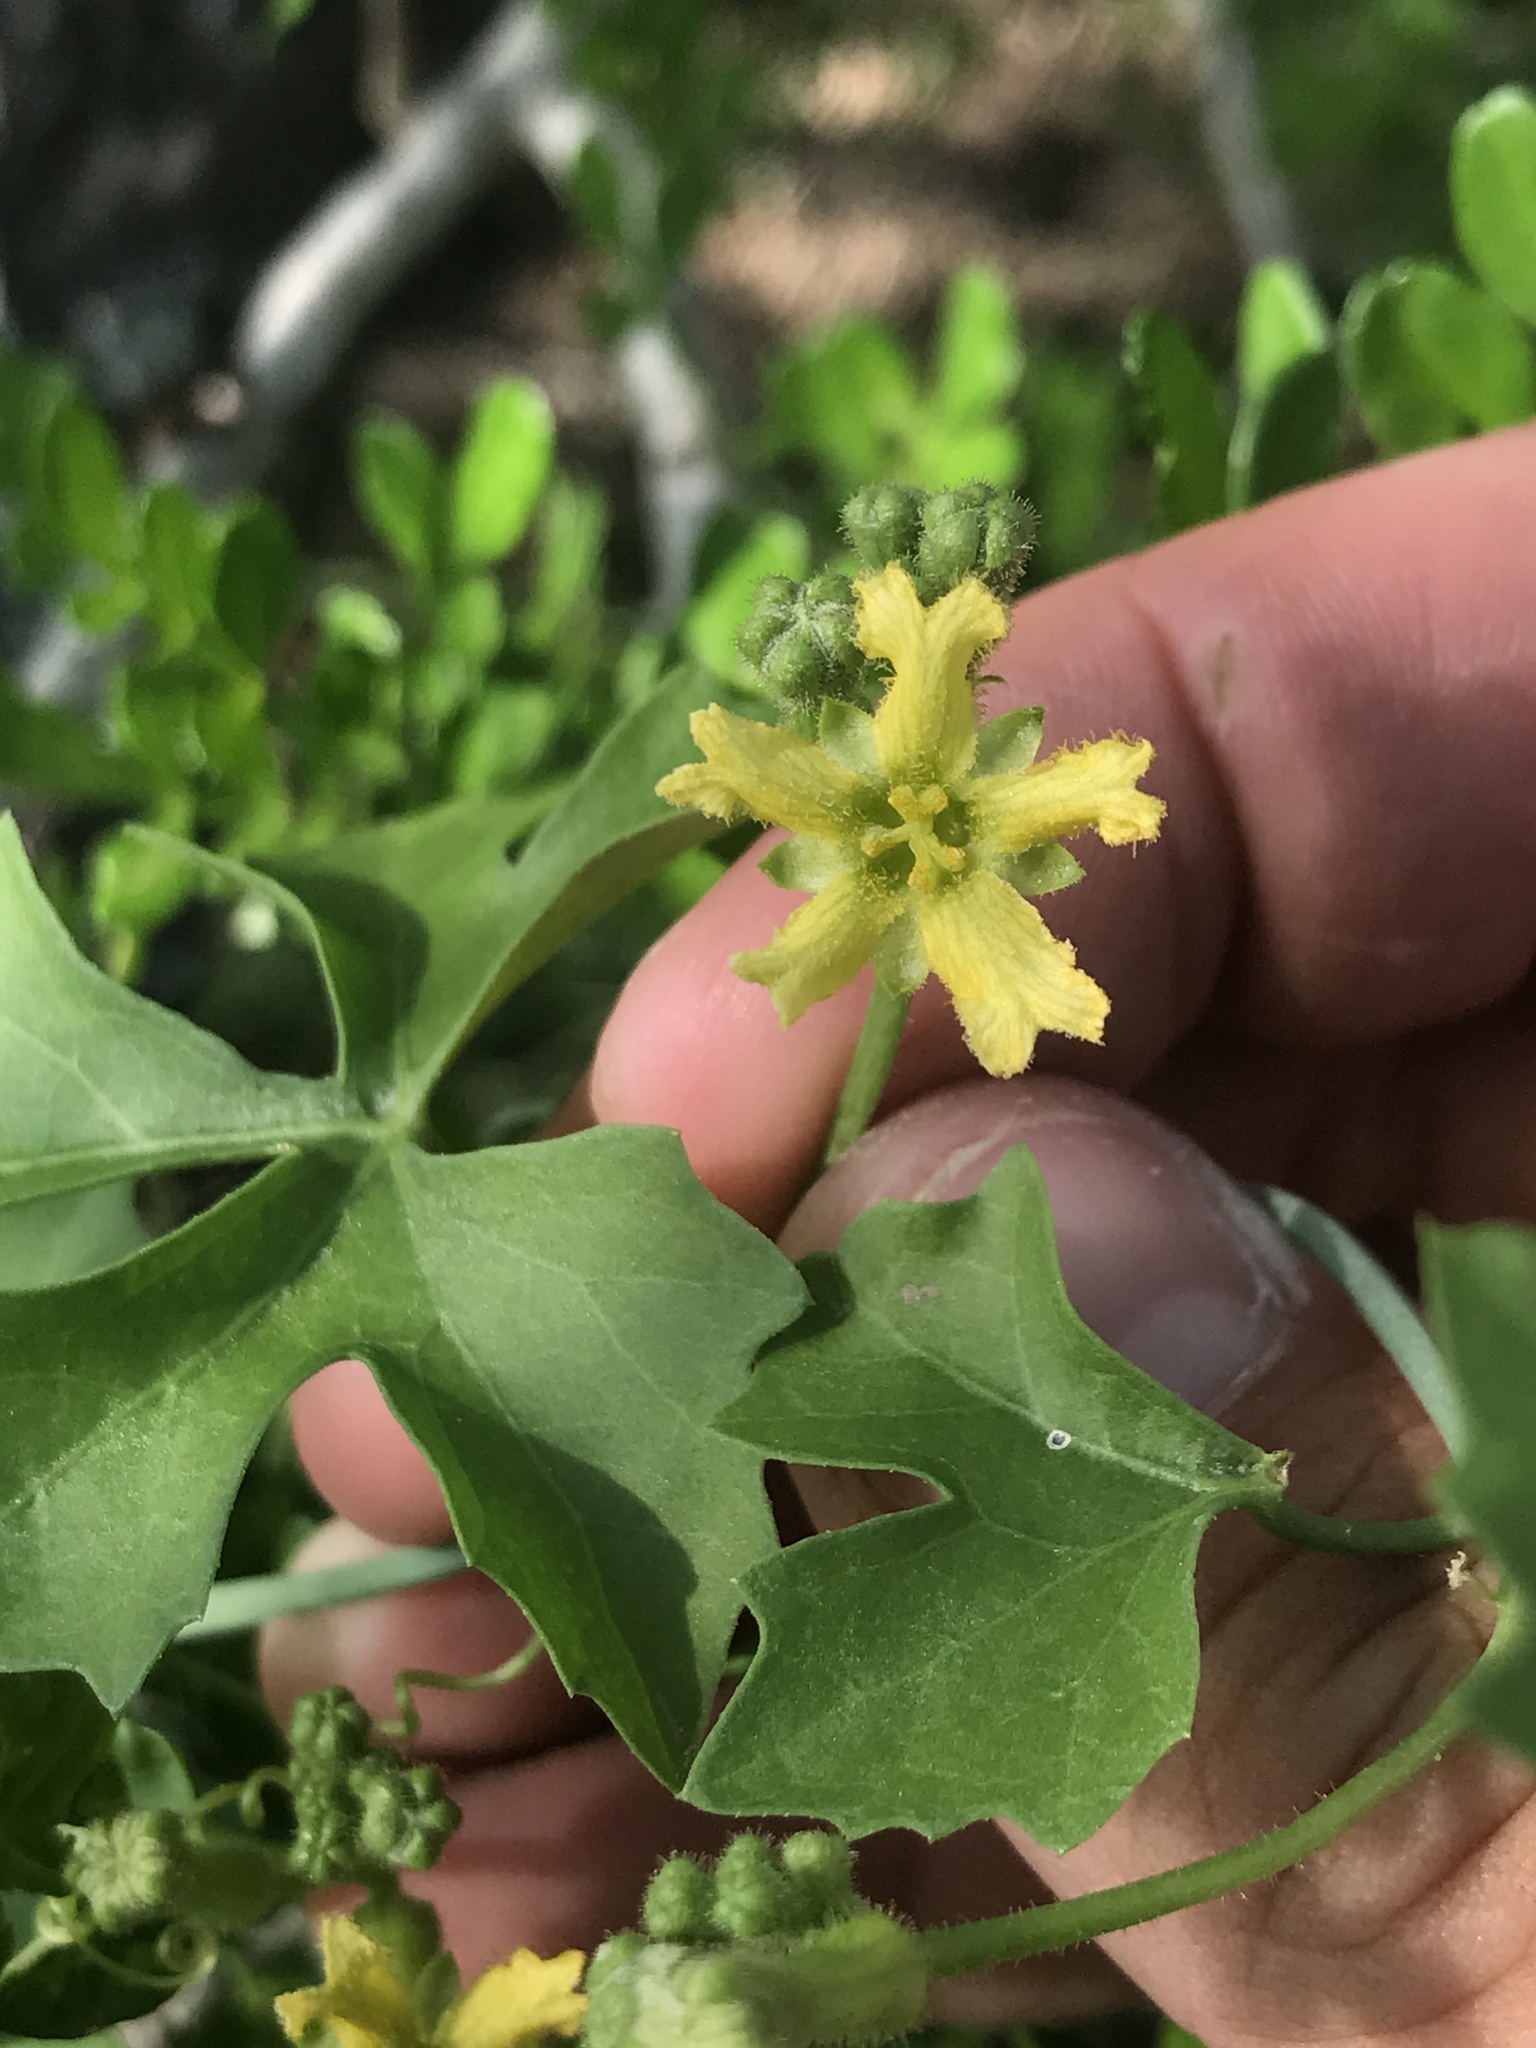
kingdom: Plantae
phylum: Tracheophyta
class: Magnoliopsida
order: Cucurbitales
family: Cucurbitaceae
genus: Ibervillea
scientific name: Ibervillea lindheimeri
